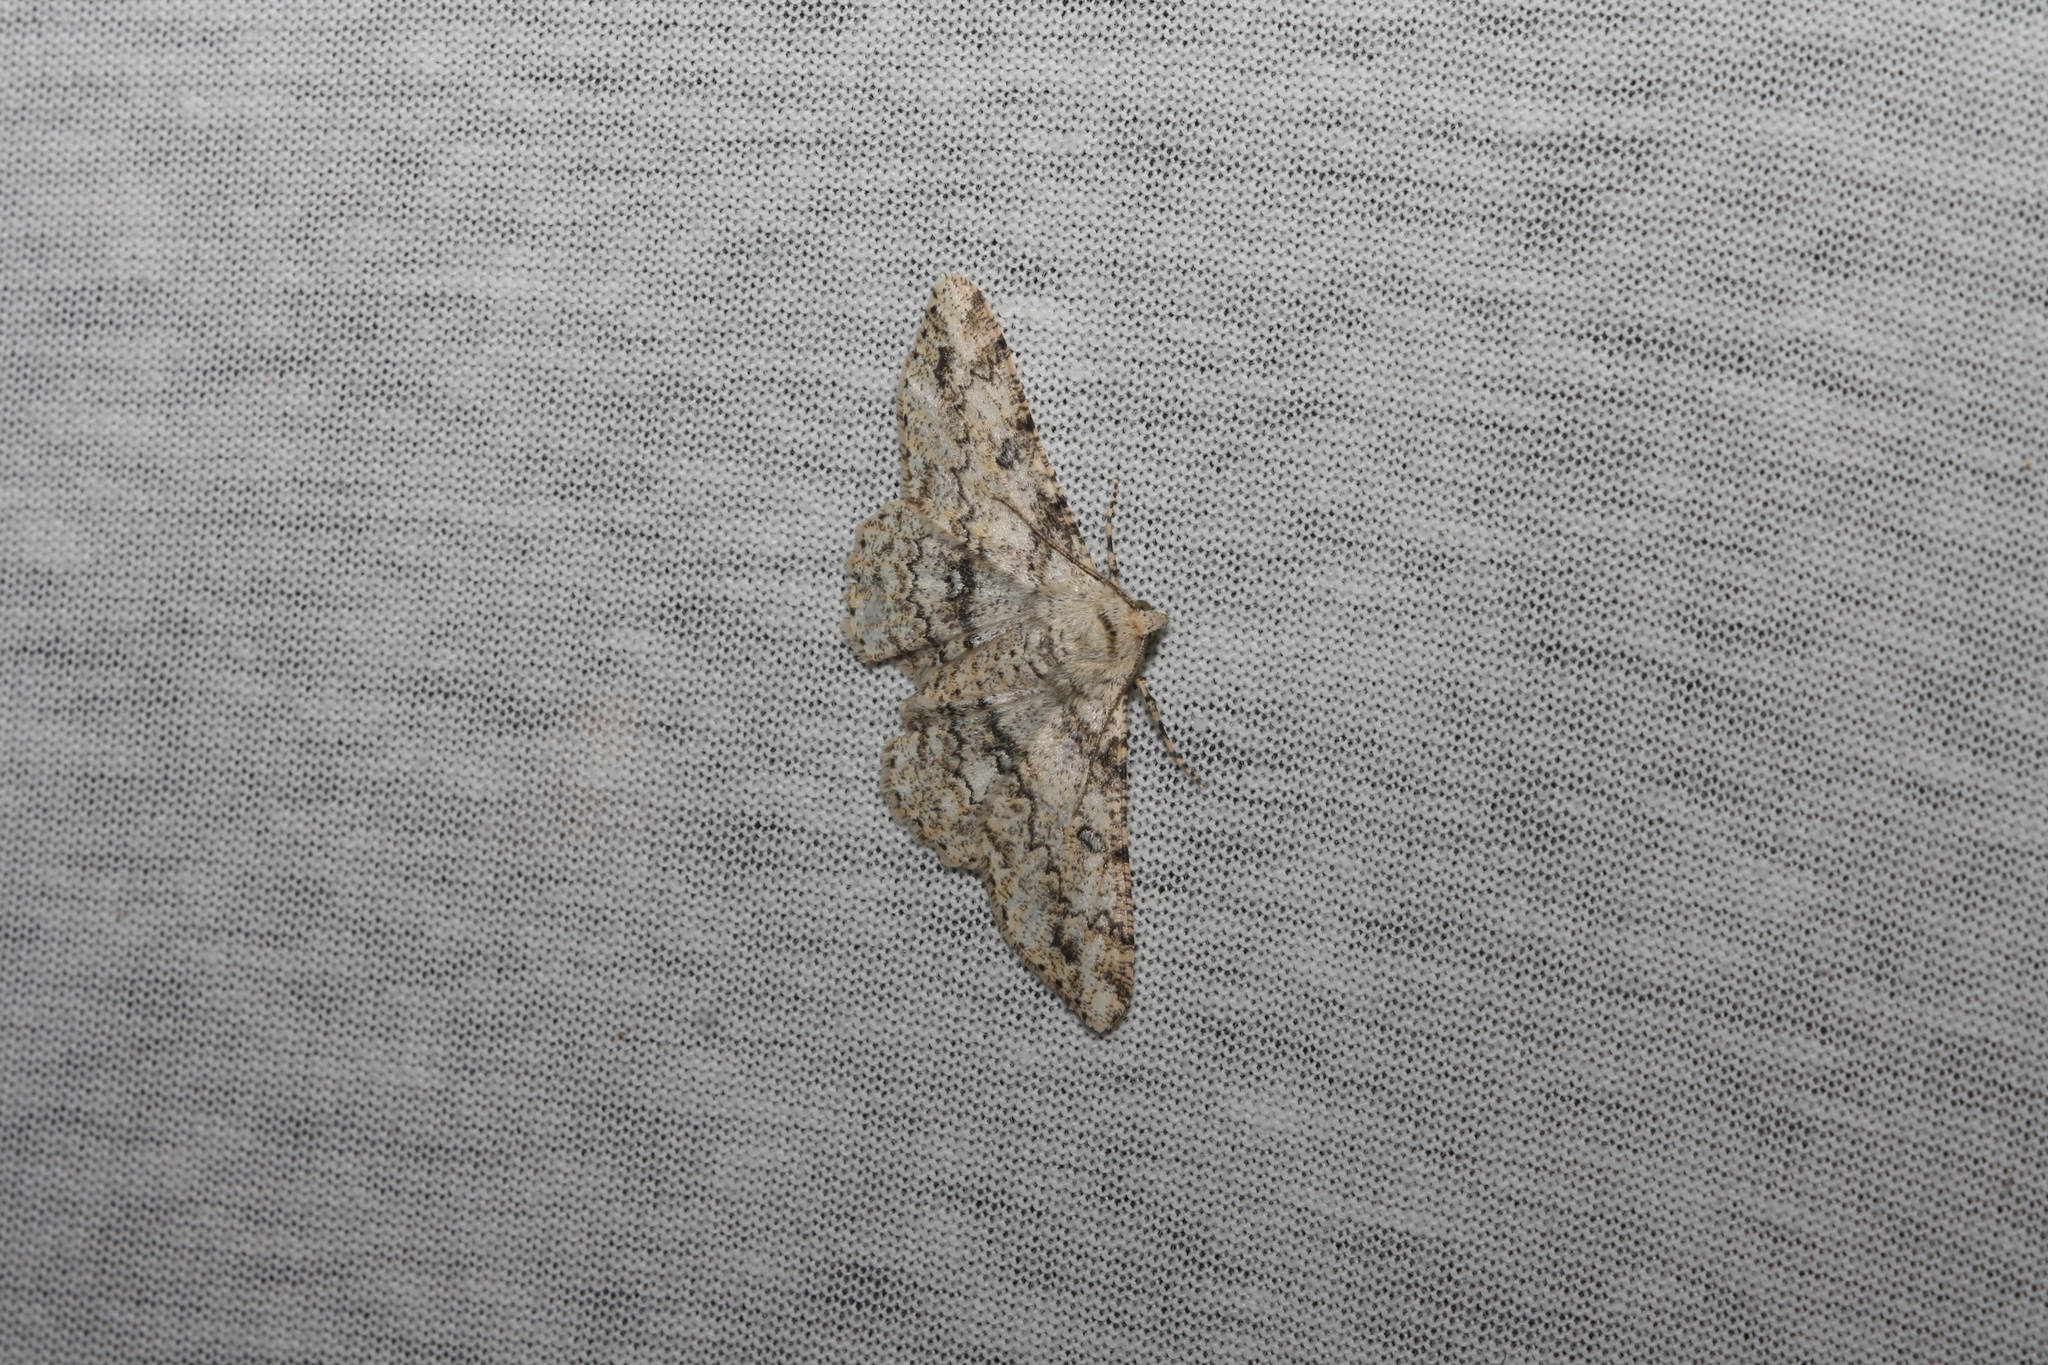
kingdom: Animalia
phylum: Arthropoda
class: Insecta
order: Lepidoptera
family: Geometridae
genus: Ascotis
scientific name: Ascotis selenaria
